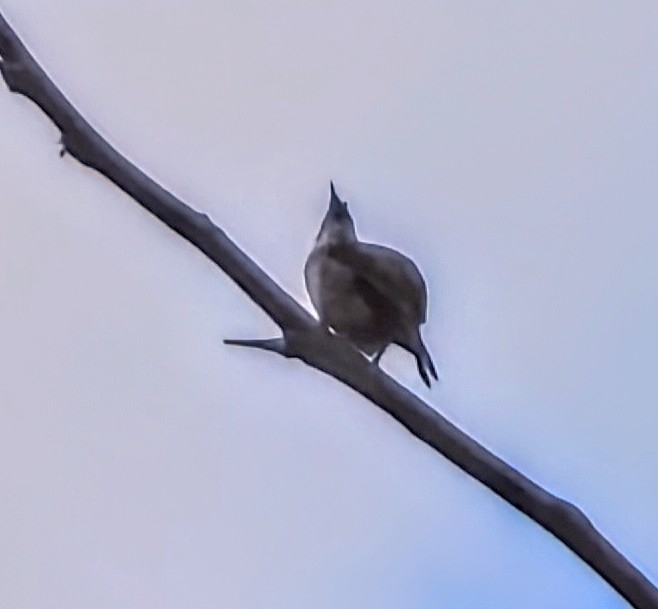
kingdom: Animalia
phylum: Chordata
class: Aves
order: Passeriformes
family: Pycnonotidae
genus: Pycnonotus
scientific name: Pycnonotus jocosus
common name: Red-whiskered bulbul
